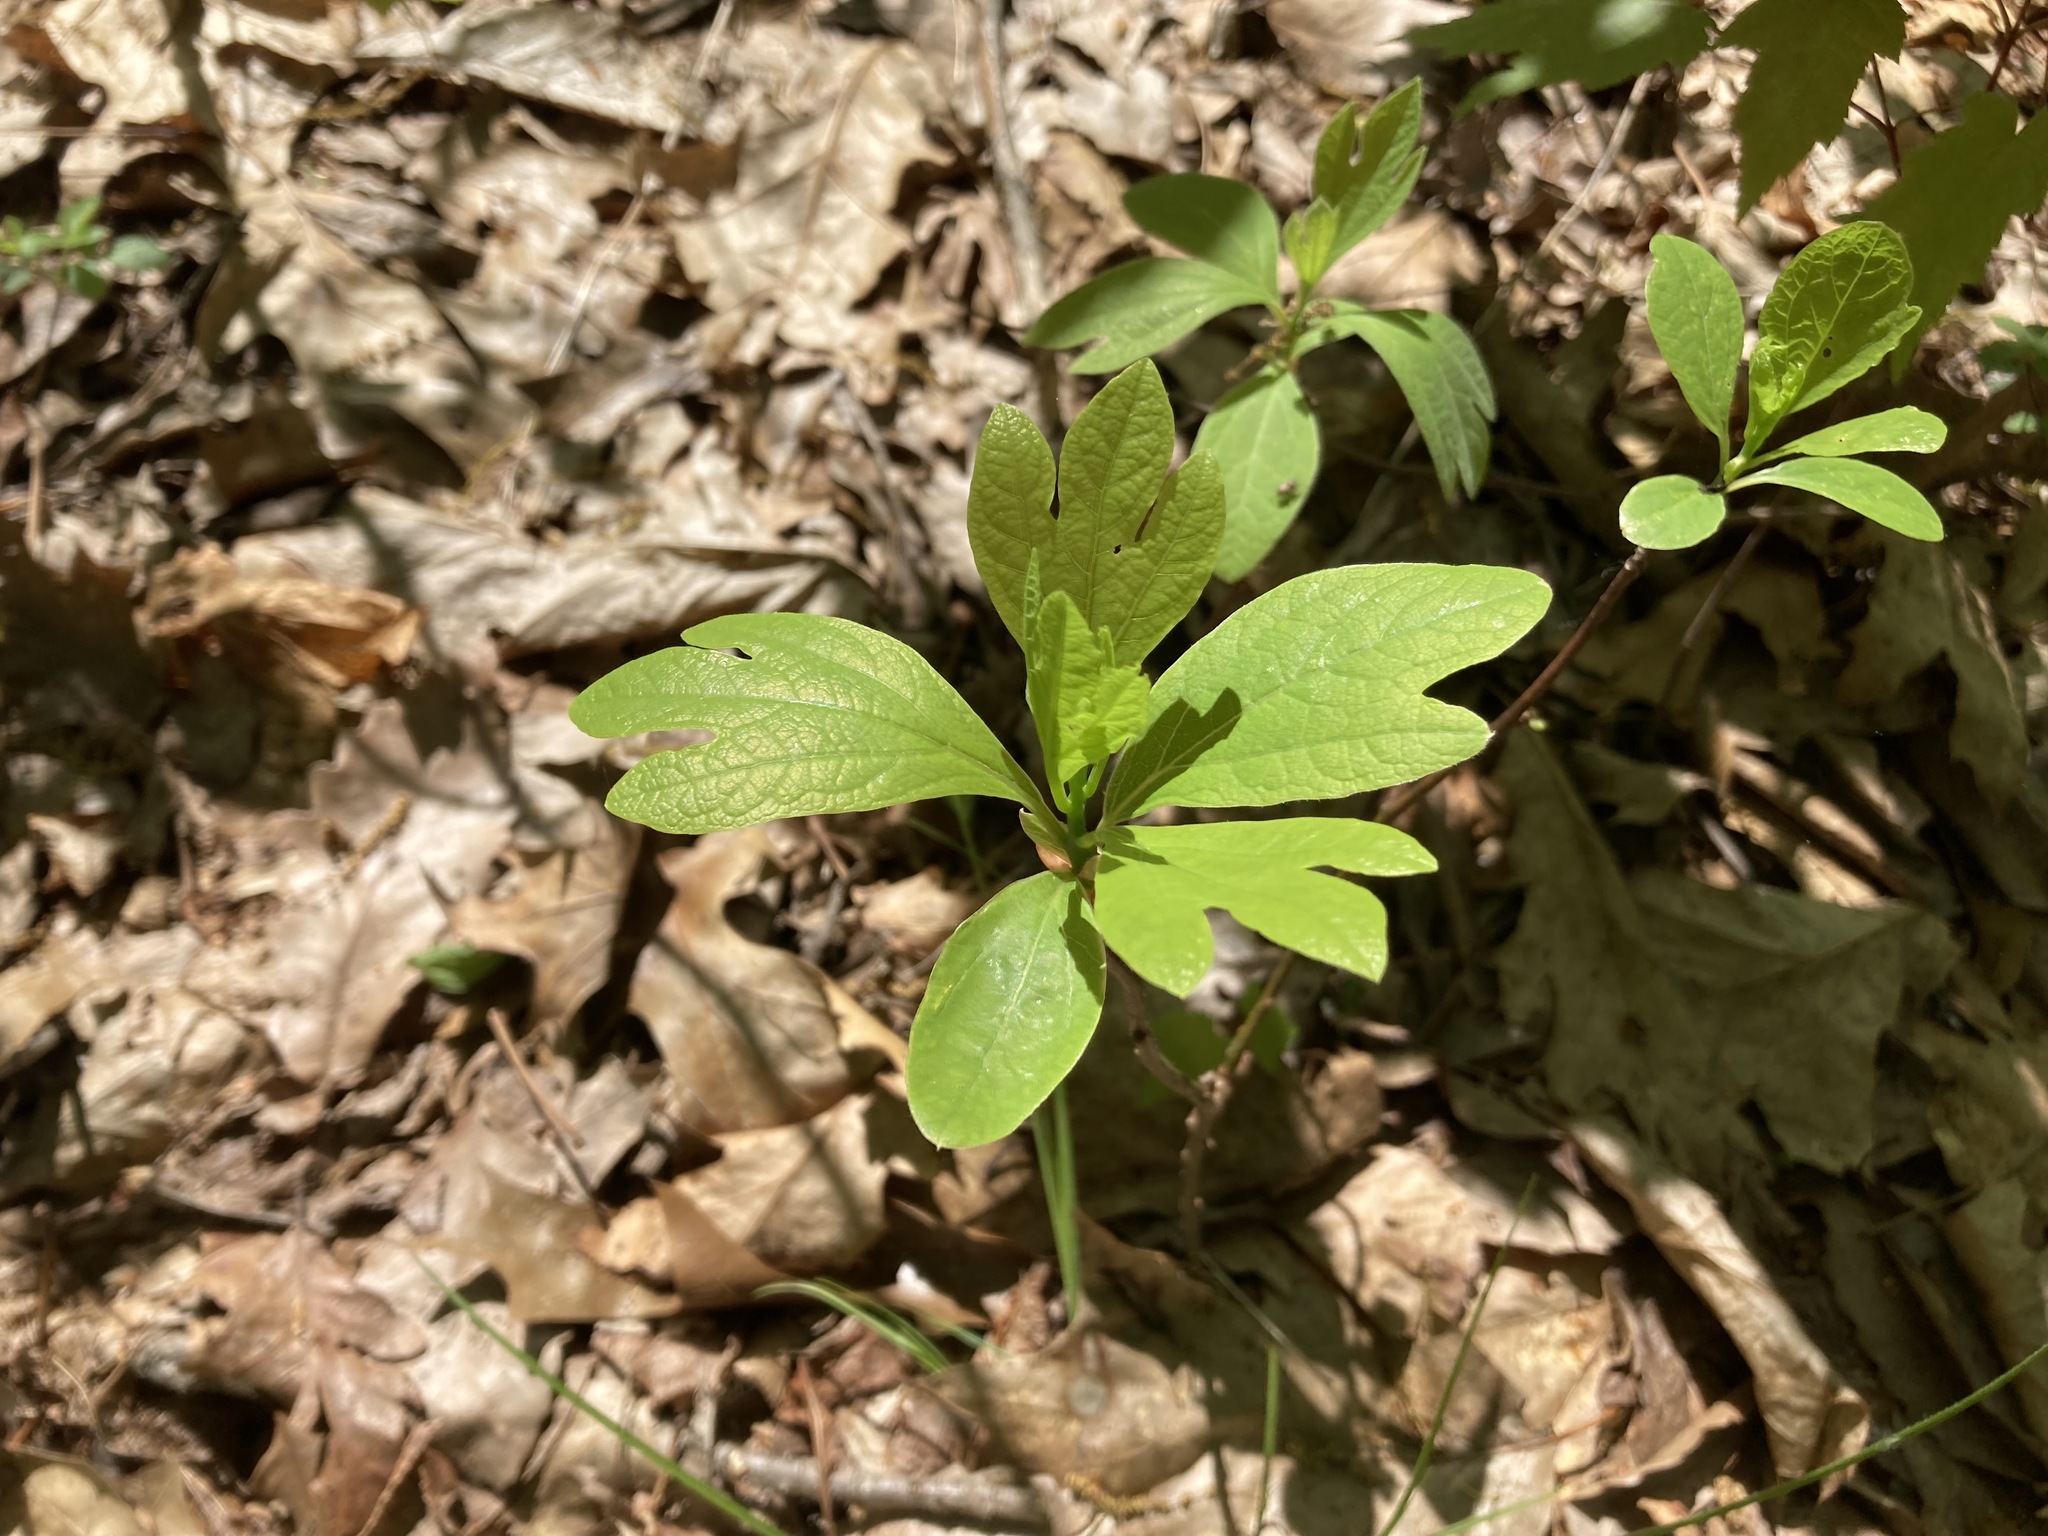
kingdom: Plantae
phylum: Tracheophyta
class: Magnoliopsida
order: Laurales
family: Lauraceae
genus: Sassafras
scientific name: Sassafras albidum
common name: Sassafras
